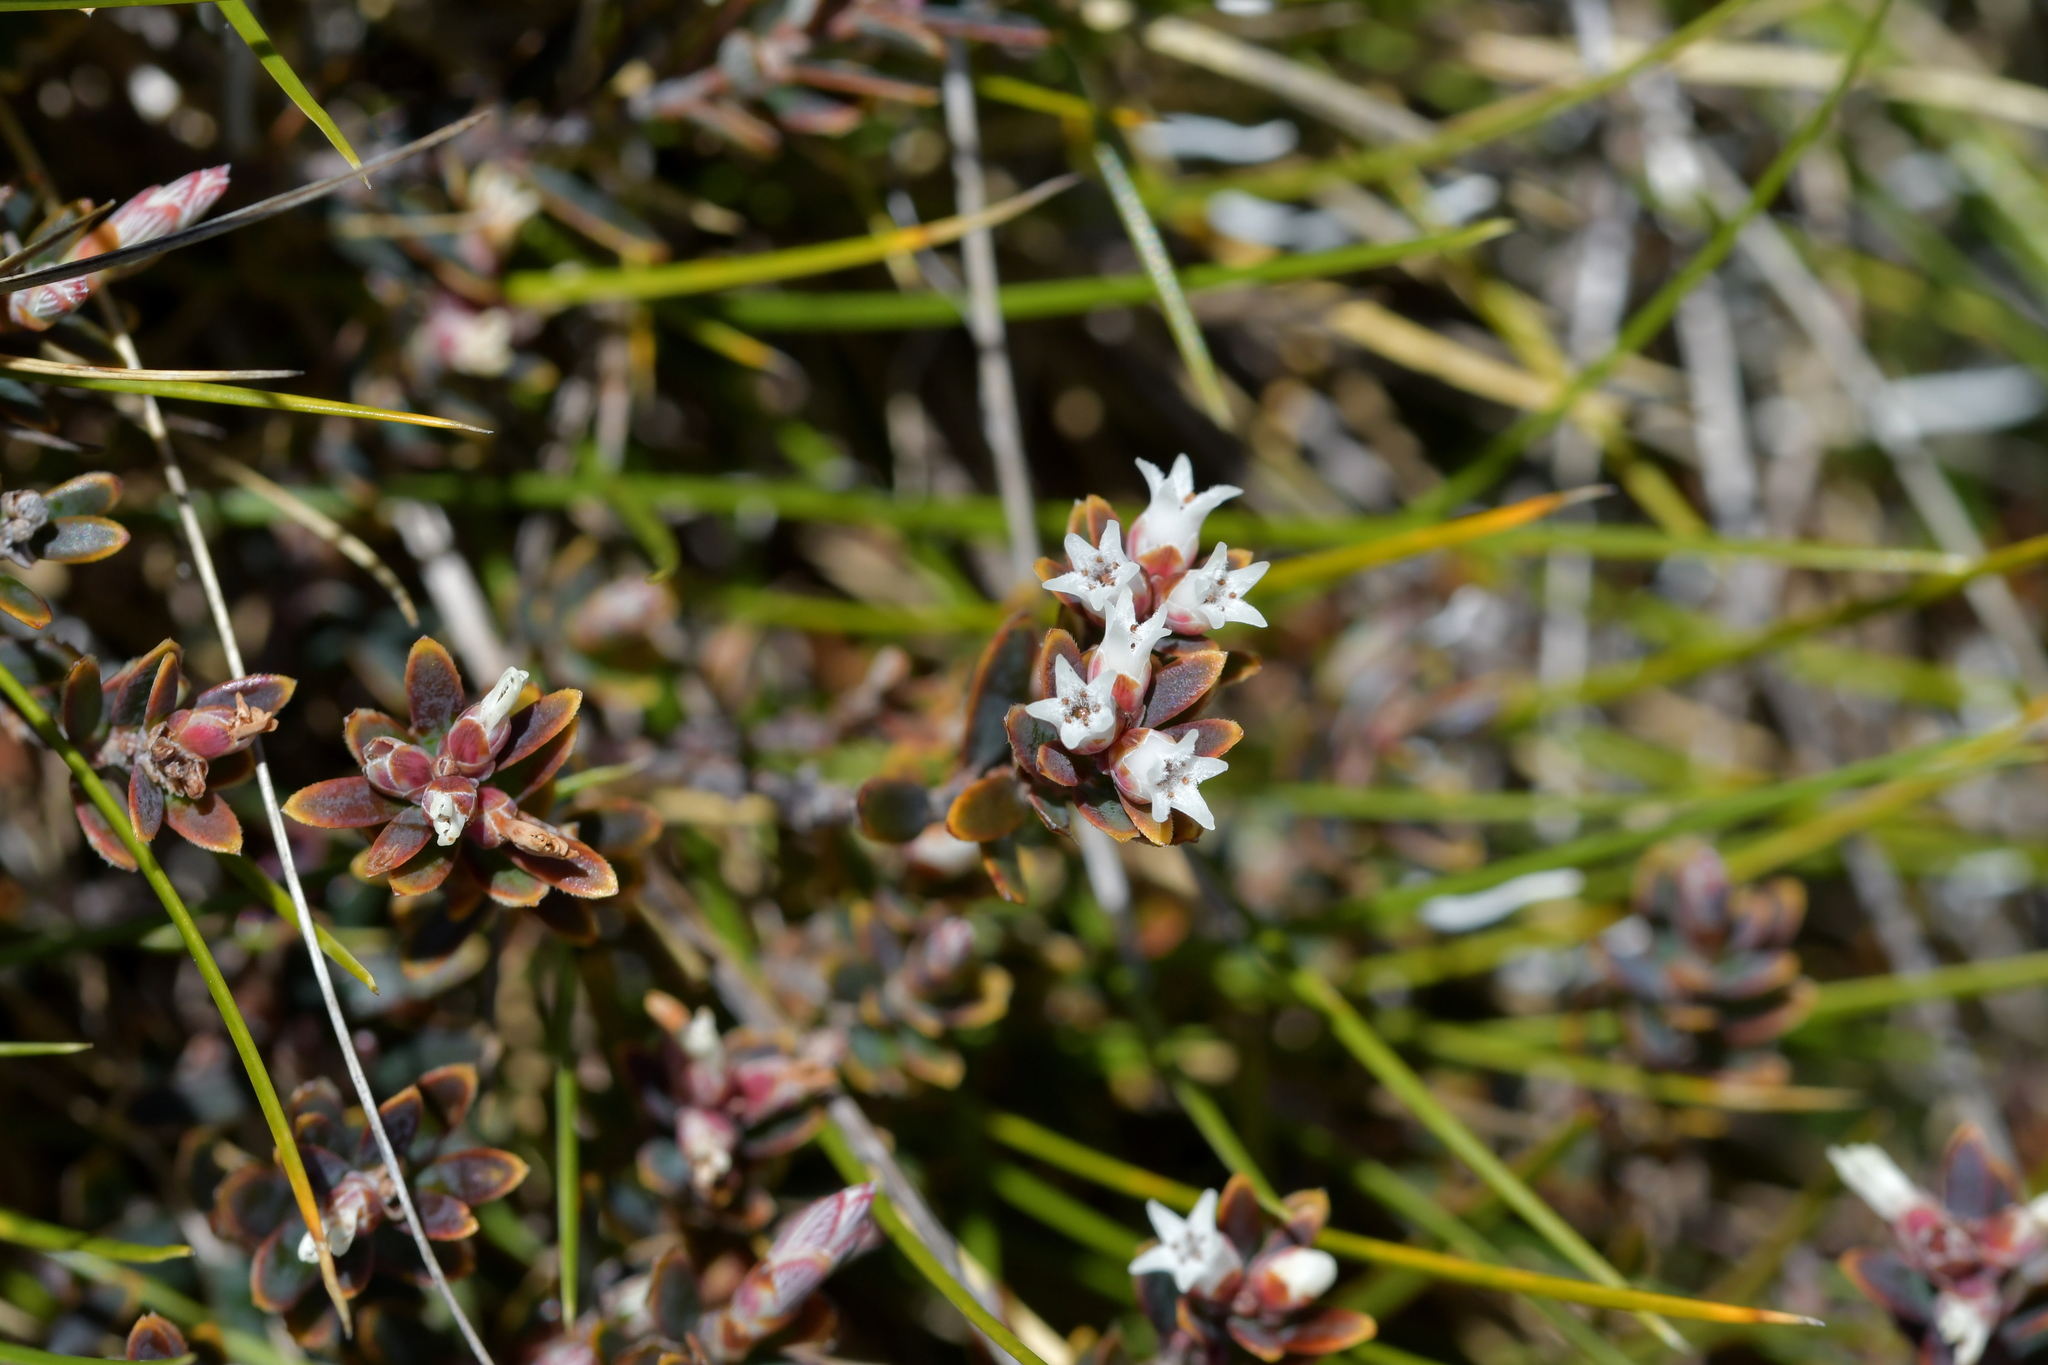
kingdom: Plantae
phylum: Tracheophyta
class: Magnoliopsida
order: Ericales
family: Ericaceae
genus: Acrothamnus
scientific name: Acrothamnus colensoi
